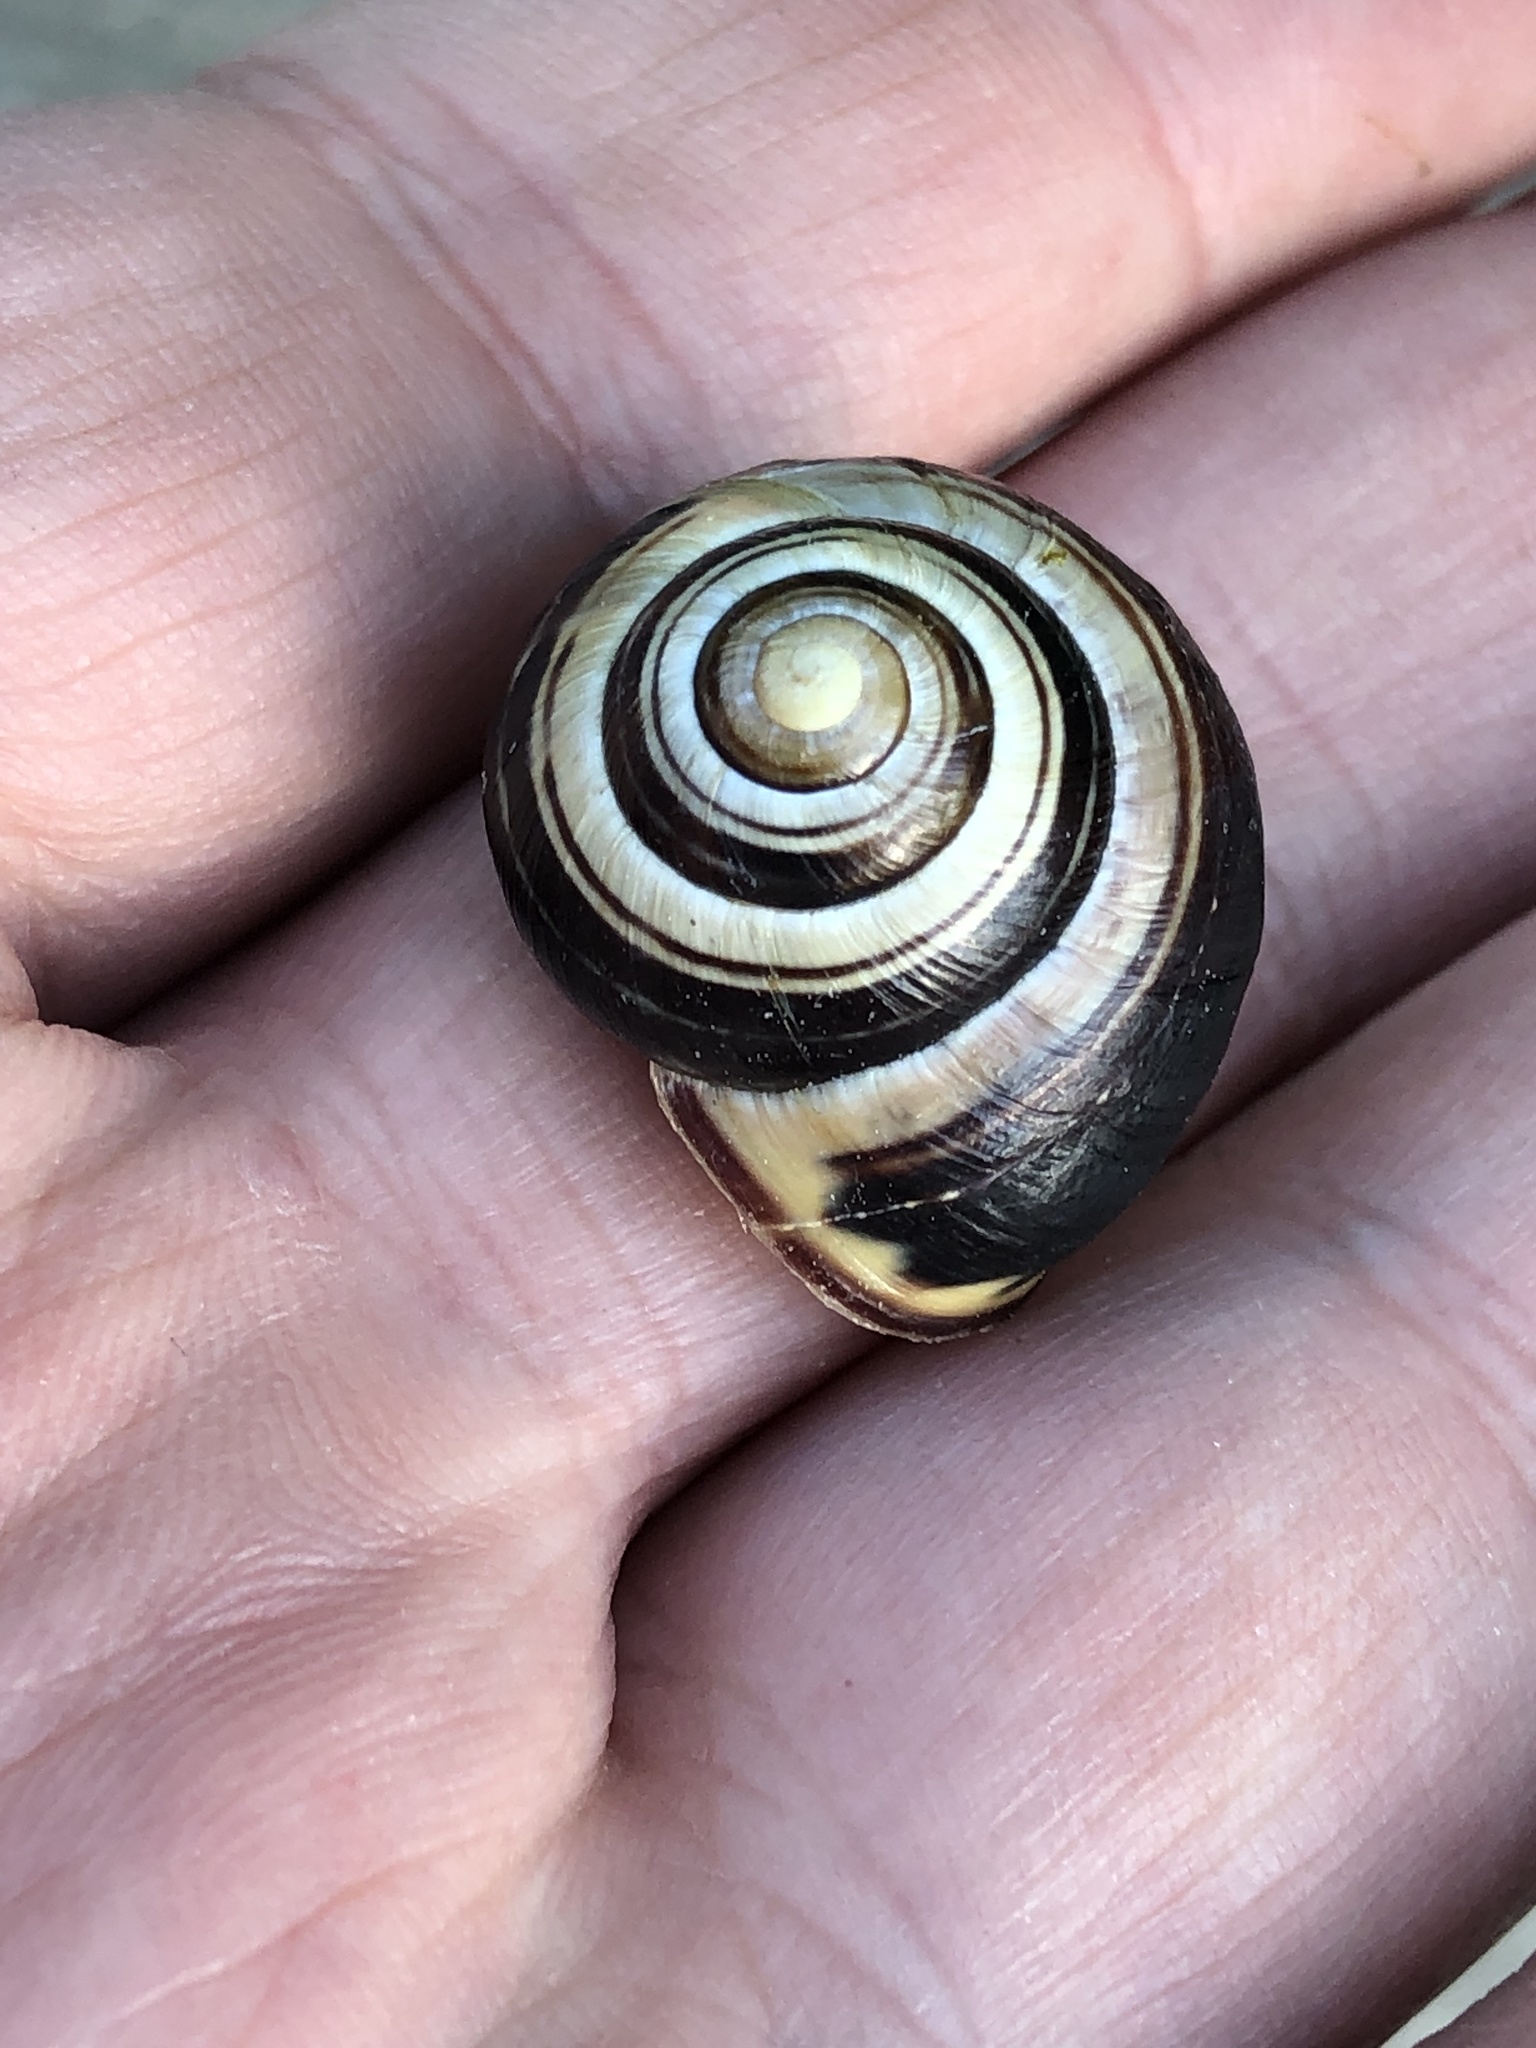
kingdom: Animalia
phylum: Mollusca
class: Gastropoda
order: Stylommatophora
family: Helicidae
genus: Cepaea
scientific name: Cepaea nemoralis
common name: Grovesnail
